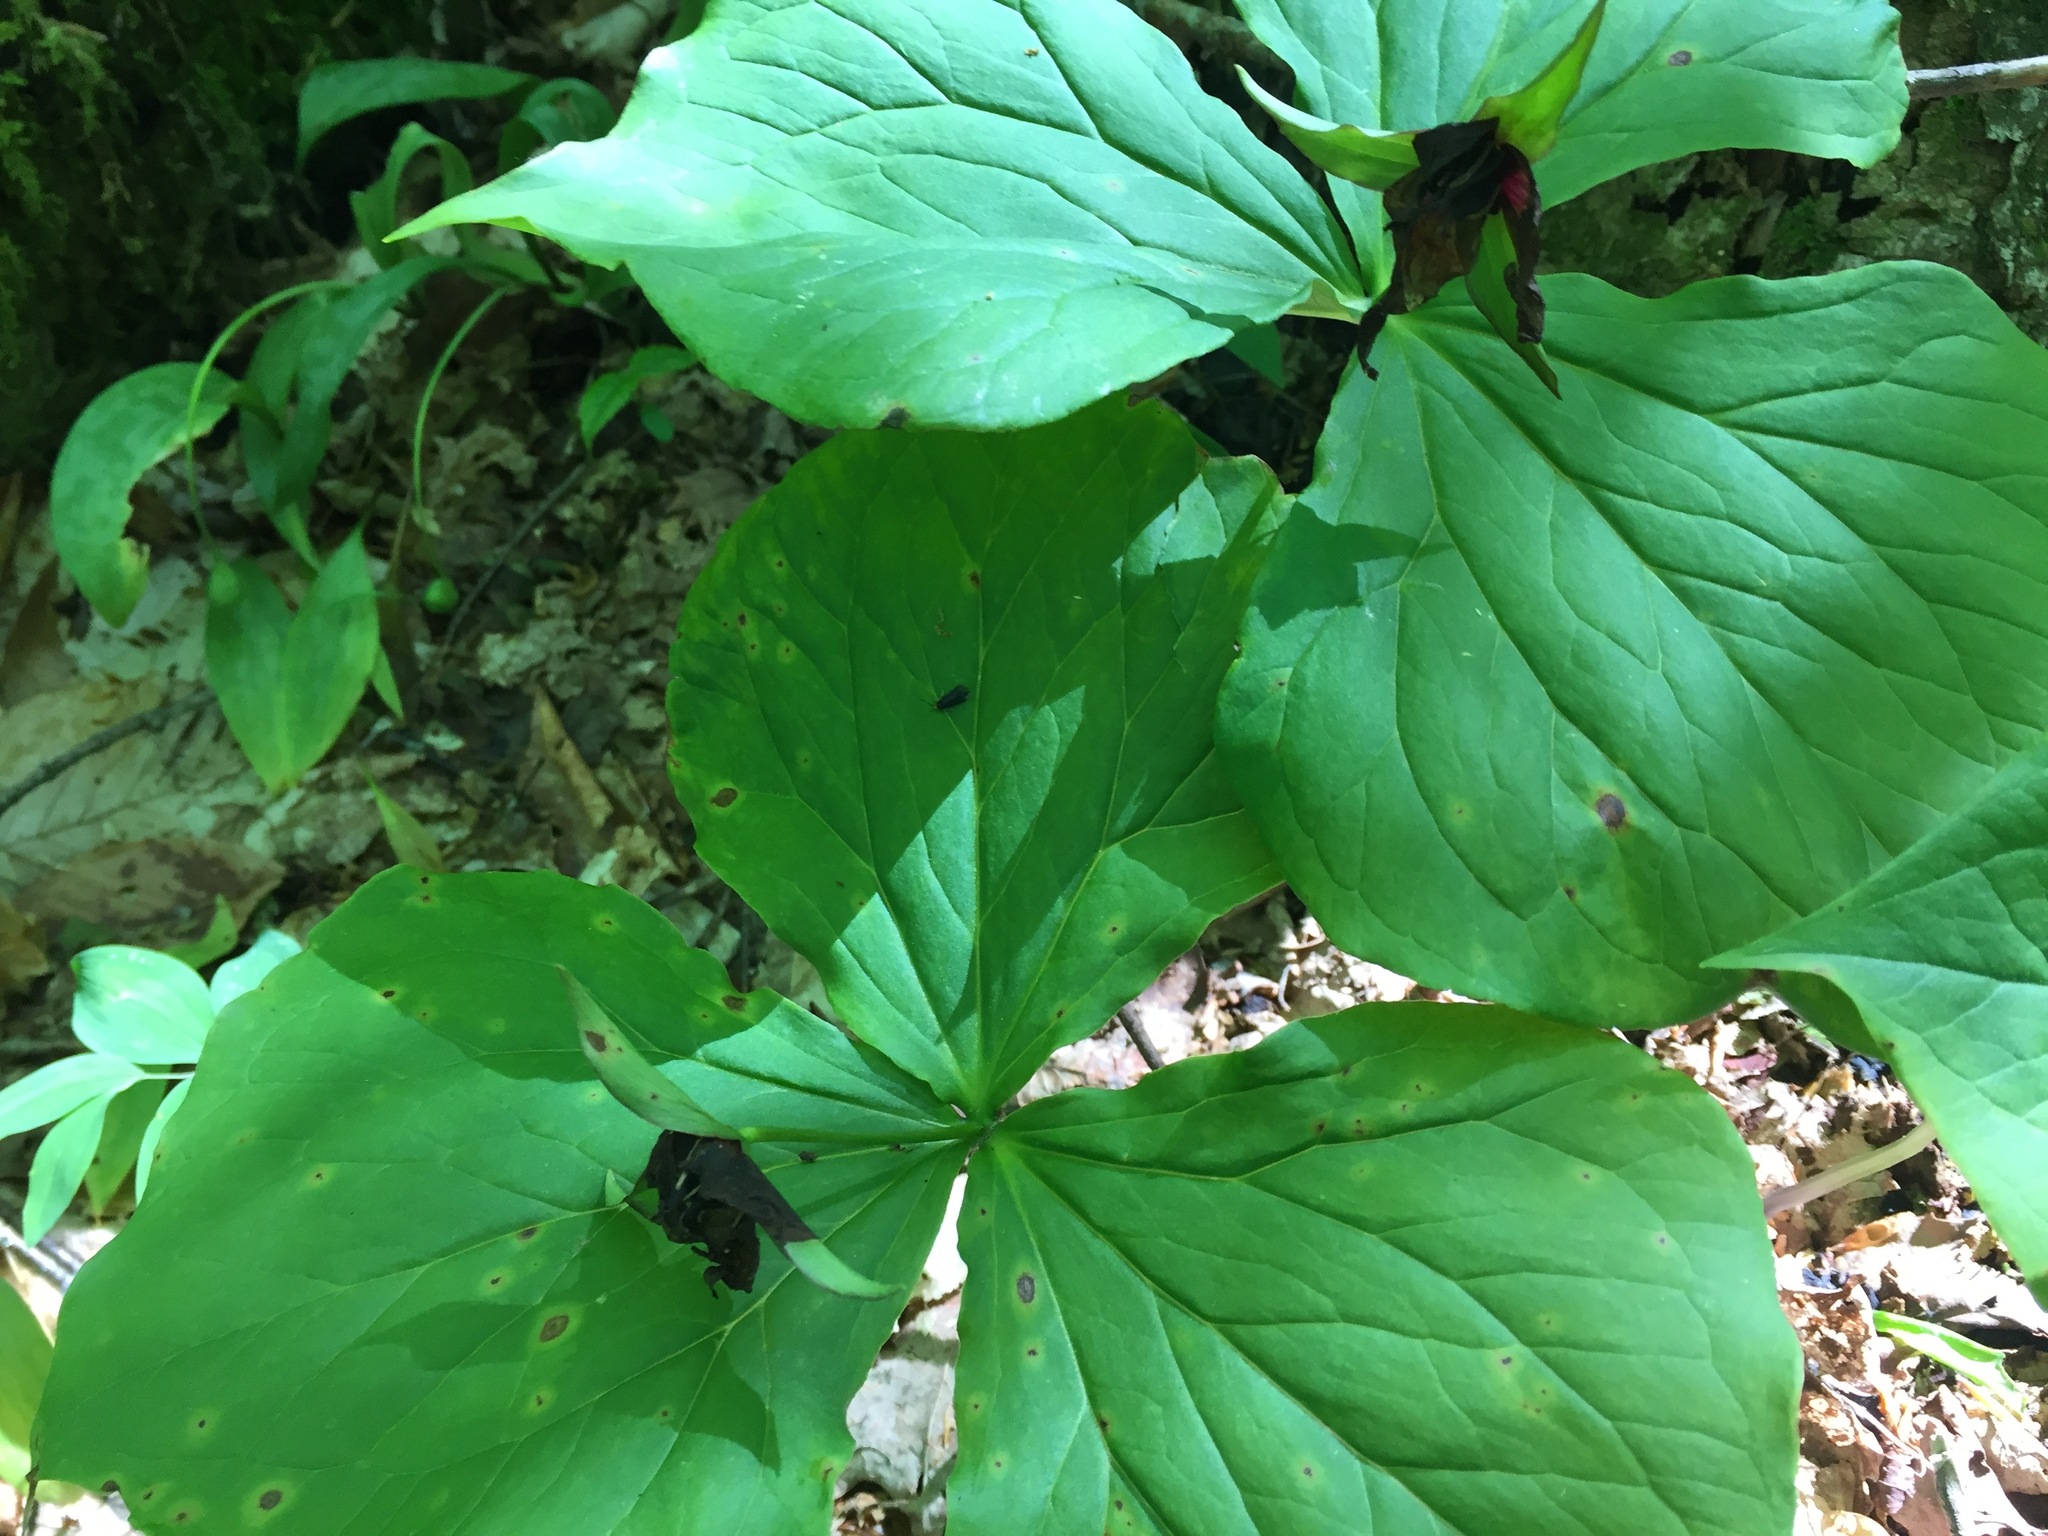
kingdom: Plantae
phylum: Tracheophyta
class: Liliopsida
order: Liliales
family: Melanthiaceae
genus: Trillium
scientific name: Trillium erectum
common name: Purple trillium
